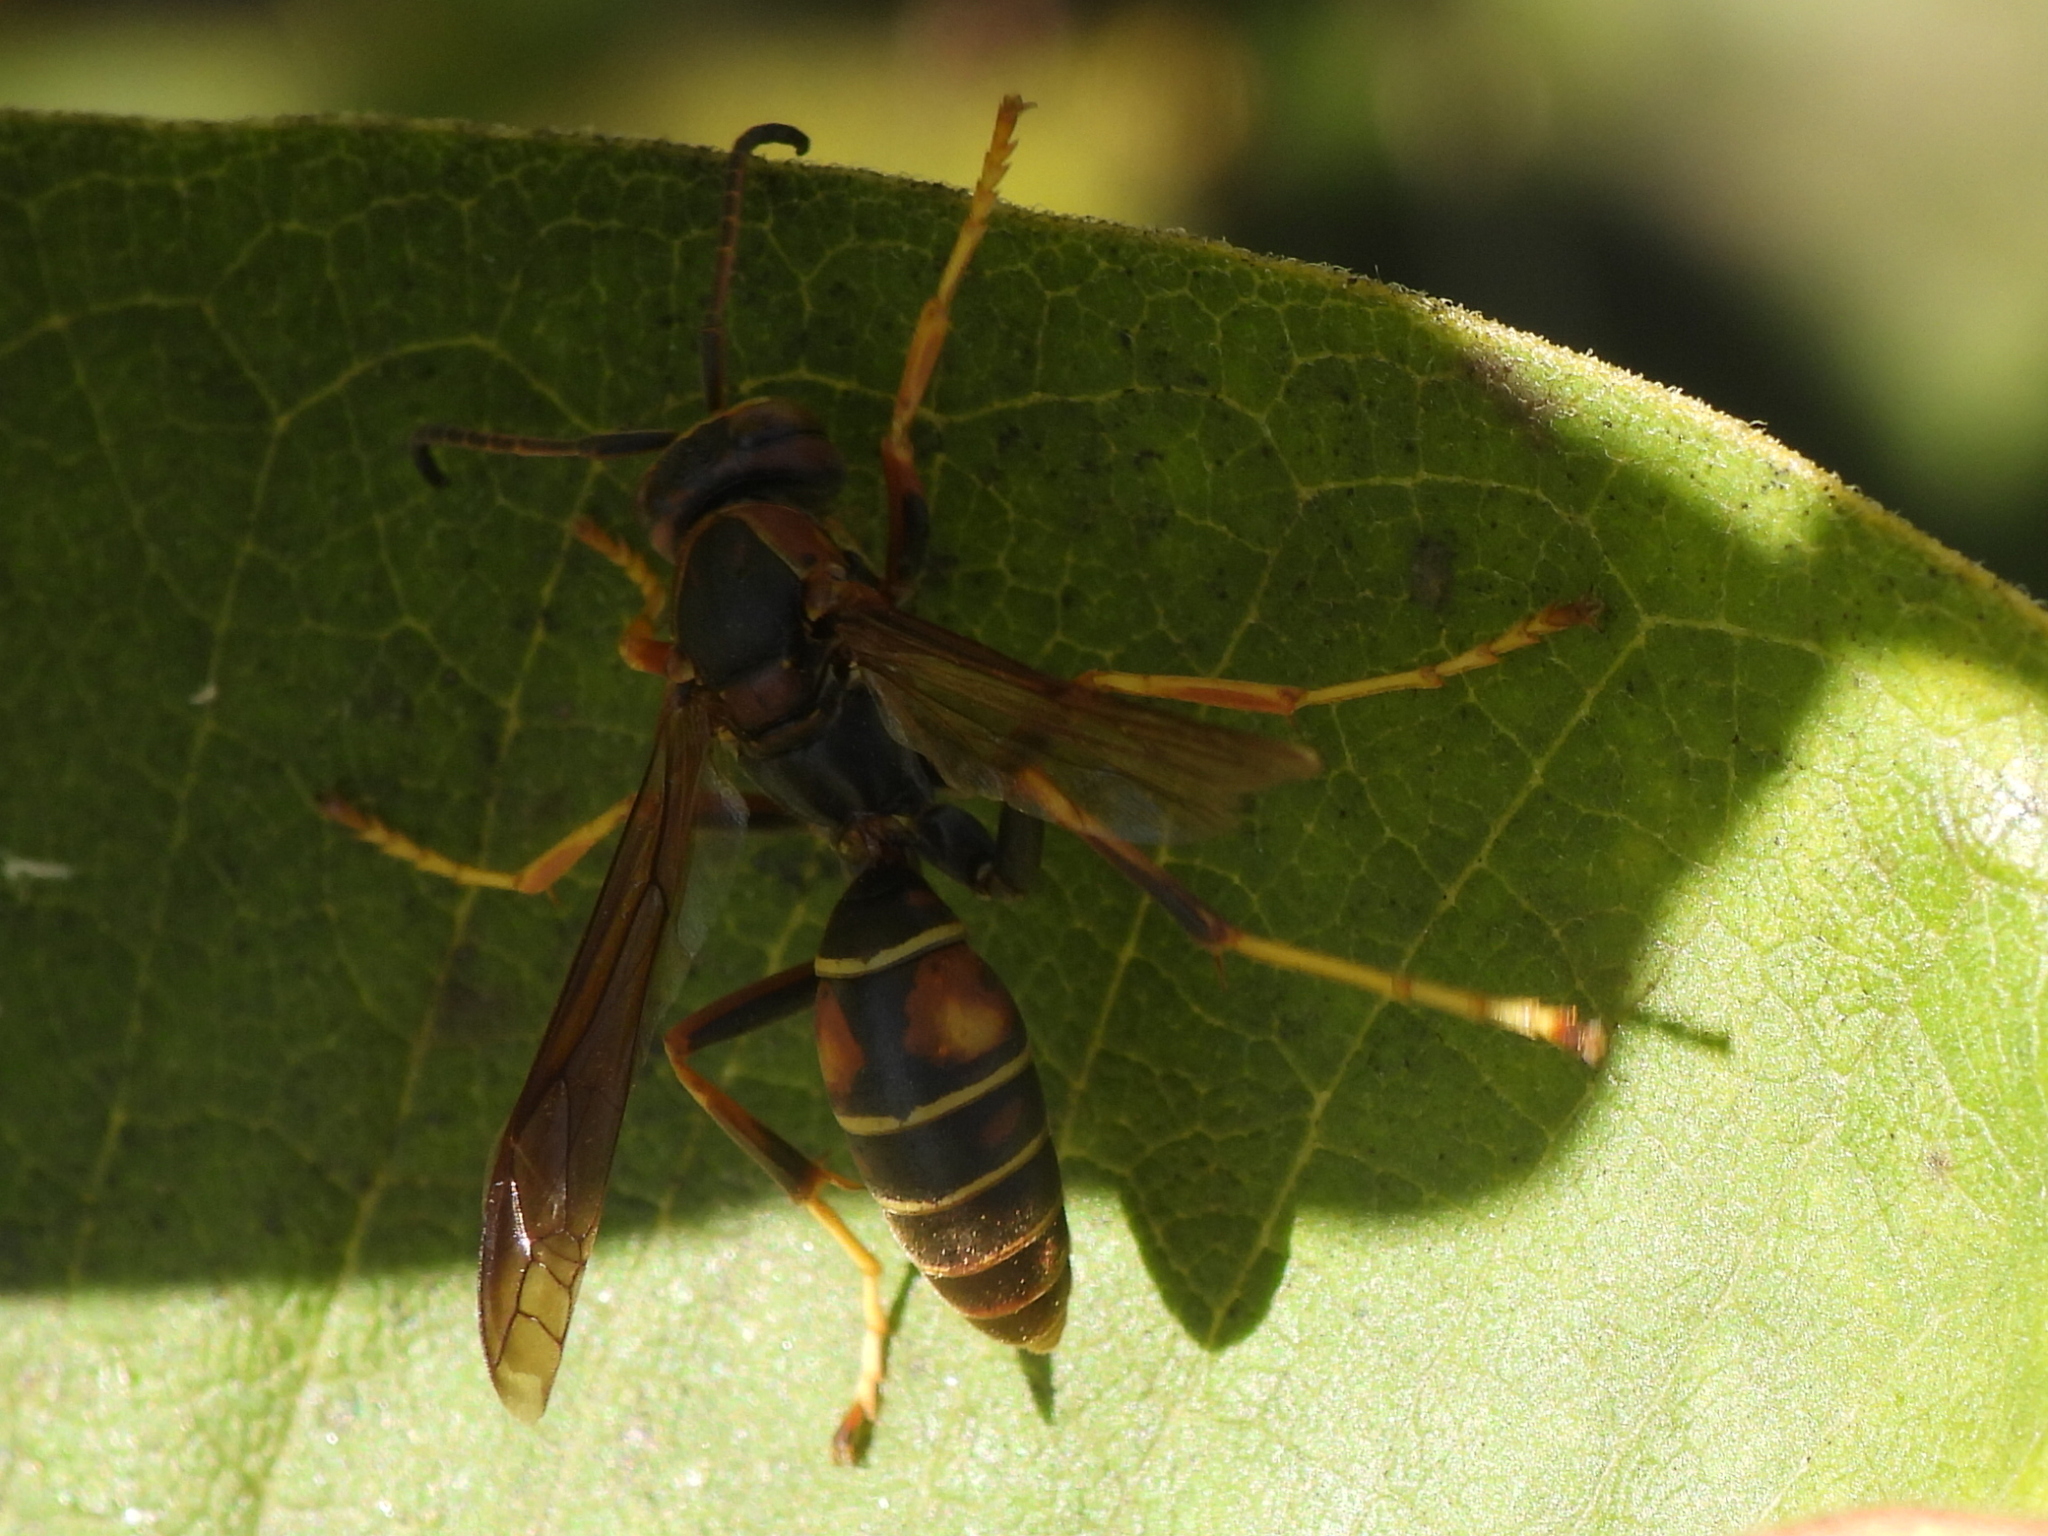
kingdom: Animalia
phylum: Arthropoda
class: Insecta
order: Hymenoptera
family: Eumenidae
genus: Polistes
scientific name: Polistes fuscatus
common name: Dark paper wasp
